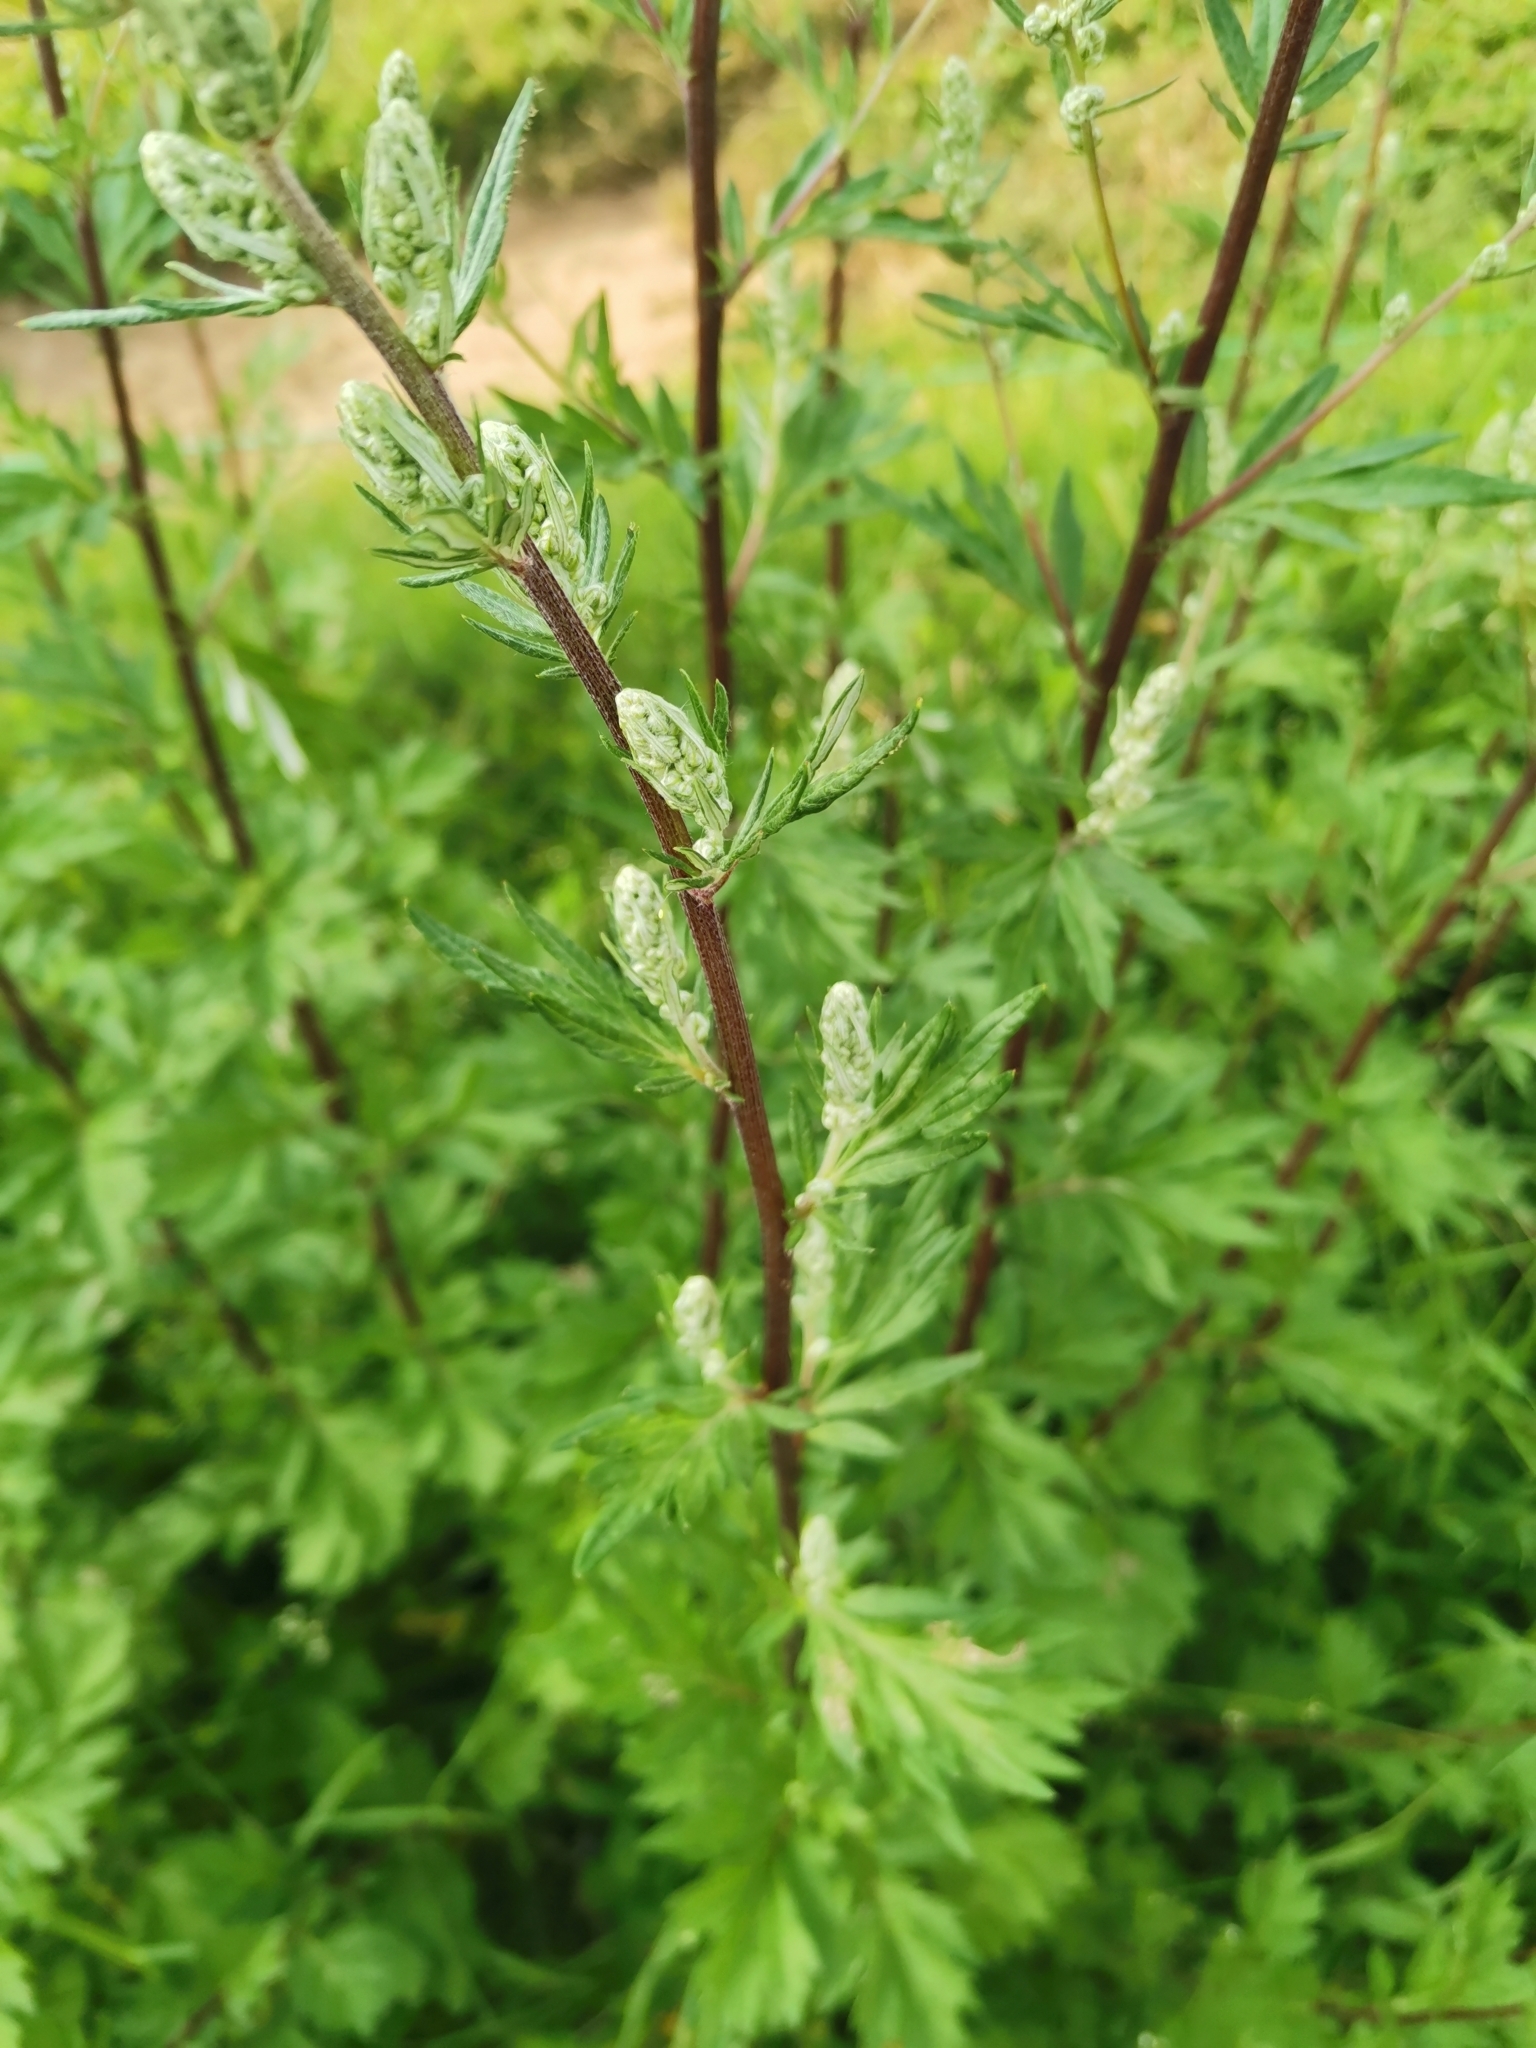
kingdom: Plantae
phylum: Tracheophyta
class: Magnoliopsida
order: Asterales
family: Asteraceae
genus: Artemisia
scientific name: Artemisia vulgaris
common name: Mugwort
